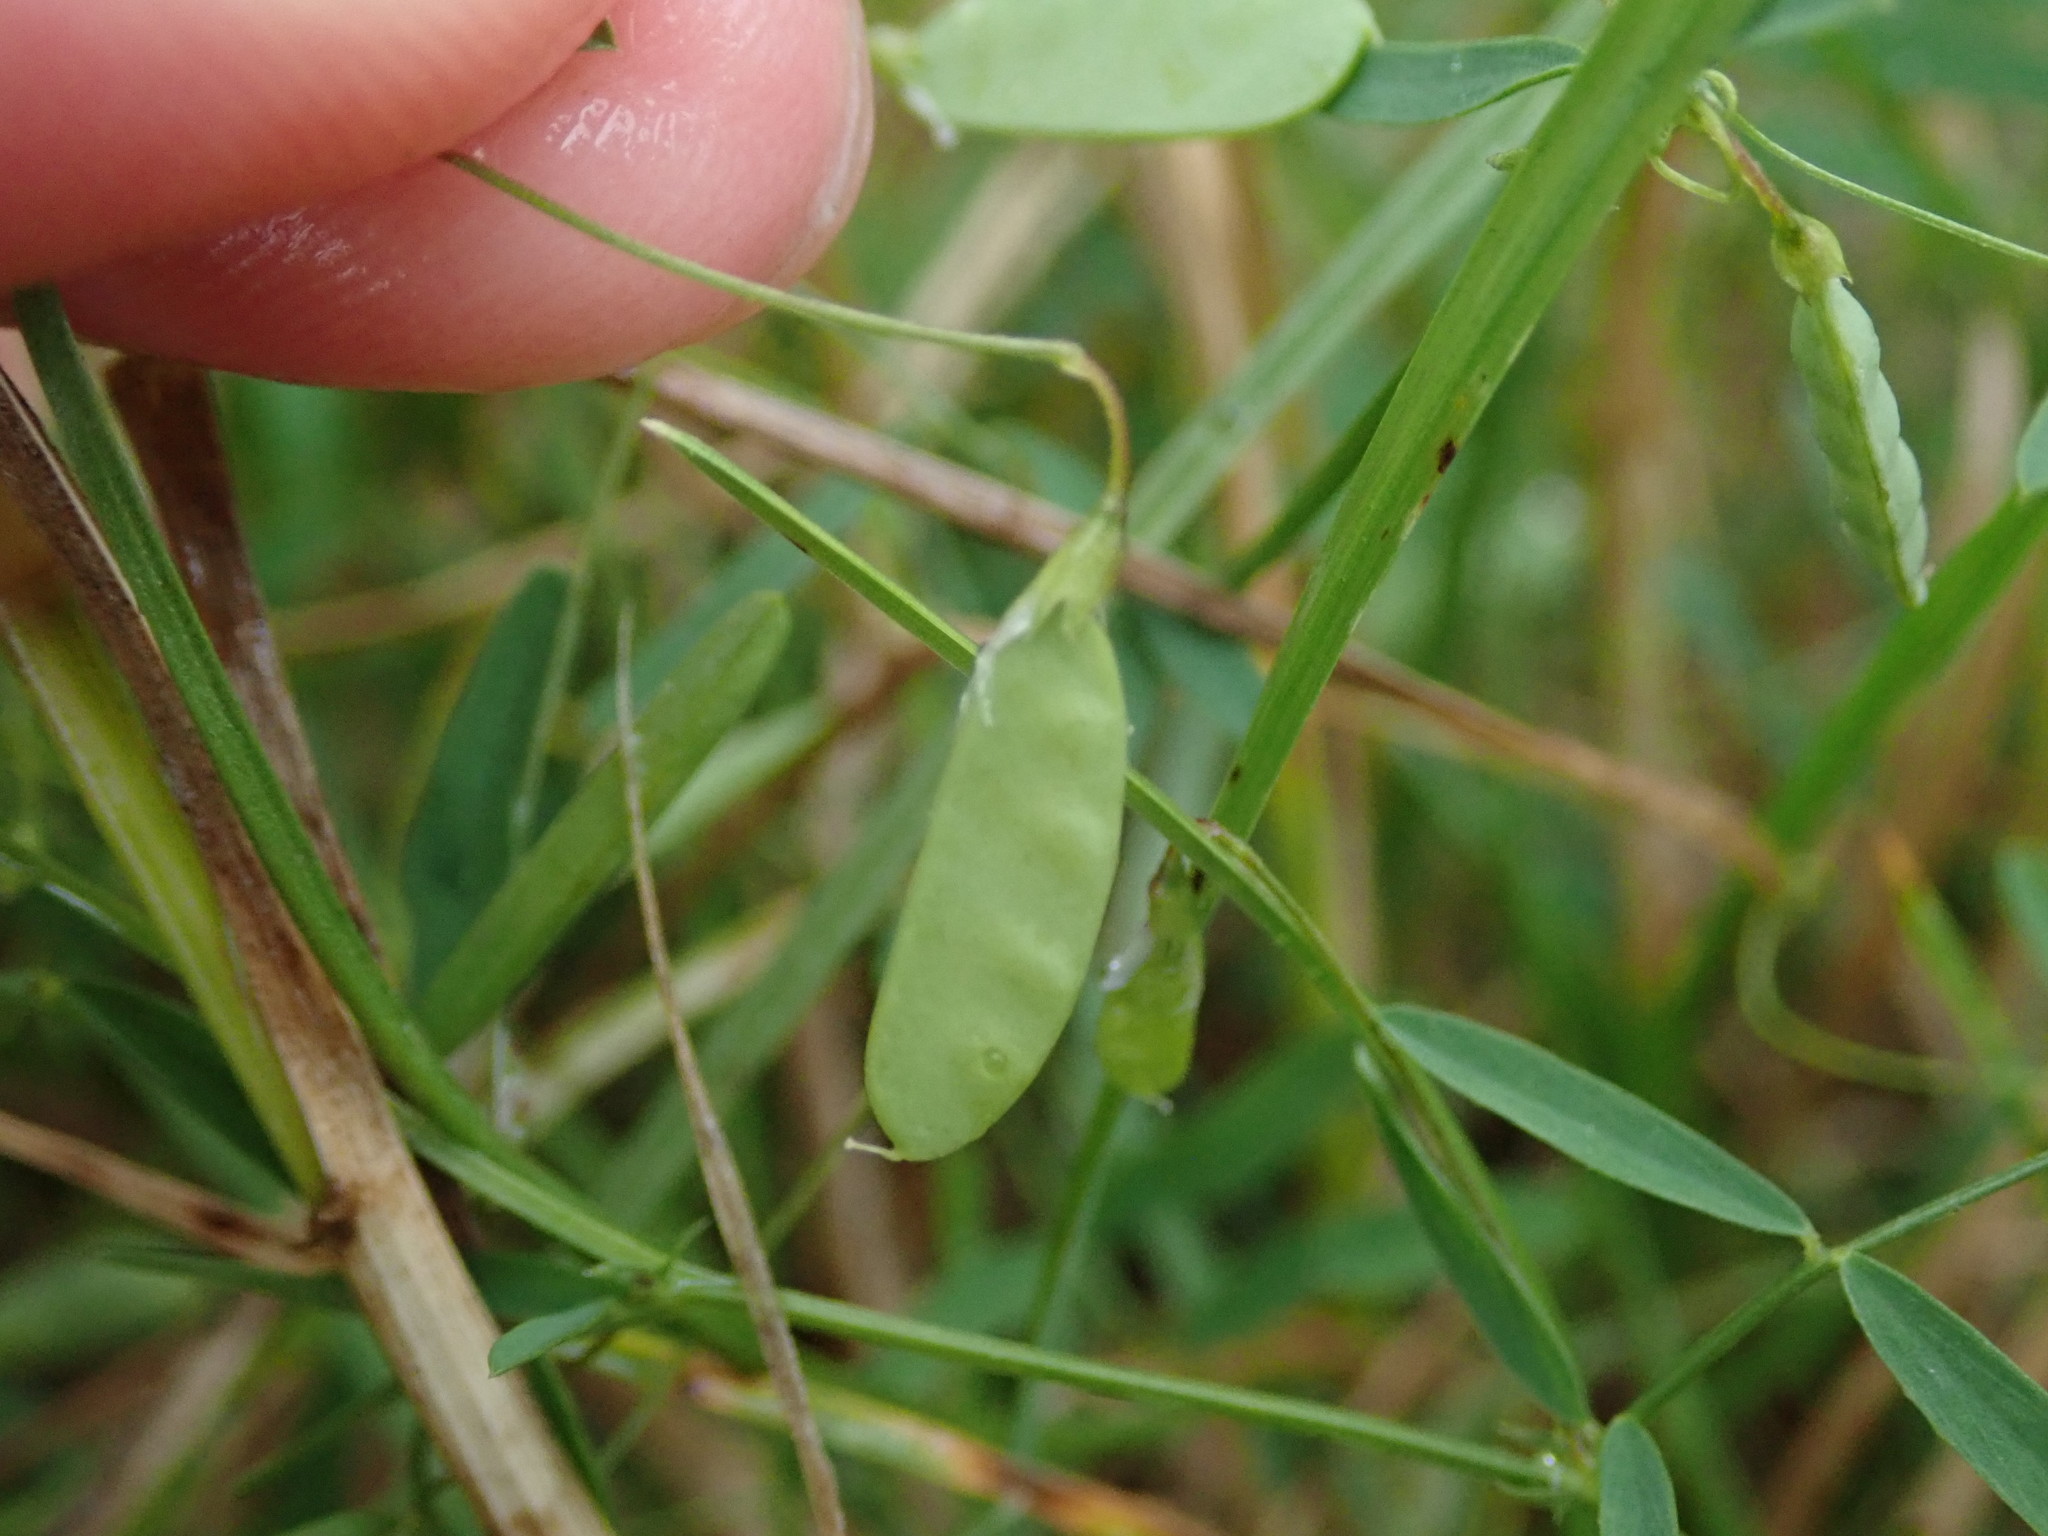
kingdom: Plantae
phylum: Tracheophyta
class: Magnoliopsida
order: Fabales
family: Fabaceae
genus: Vicia
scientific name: Vicia tetrasperma
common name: Smooth tare
